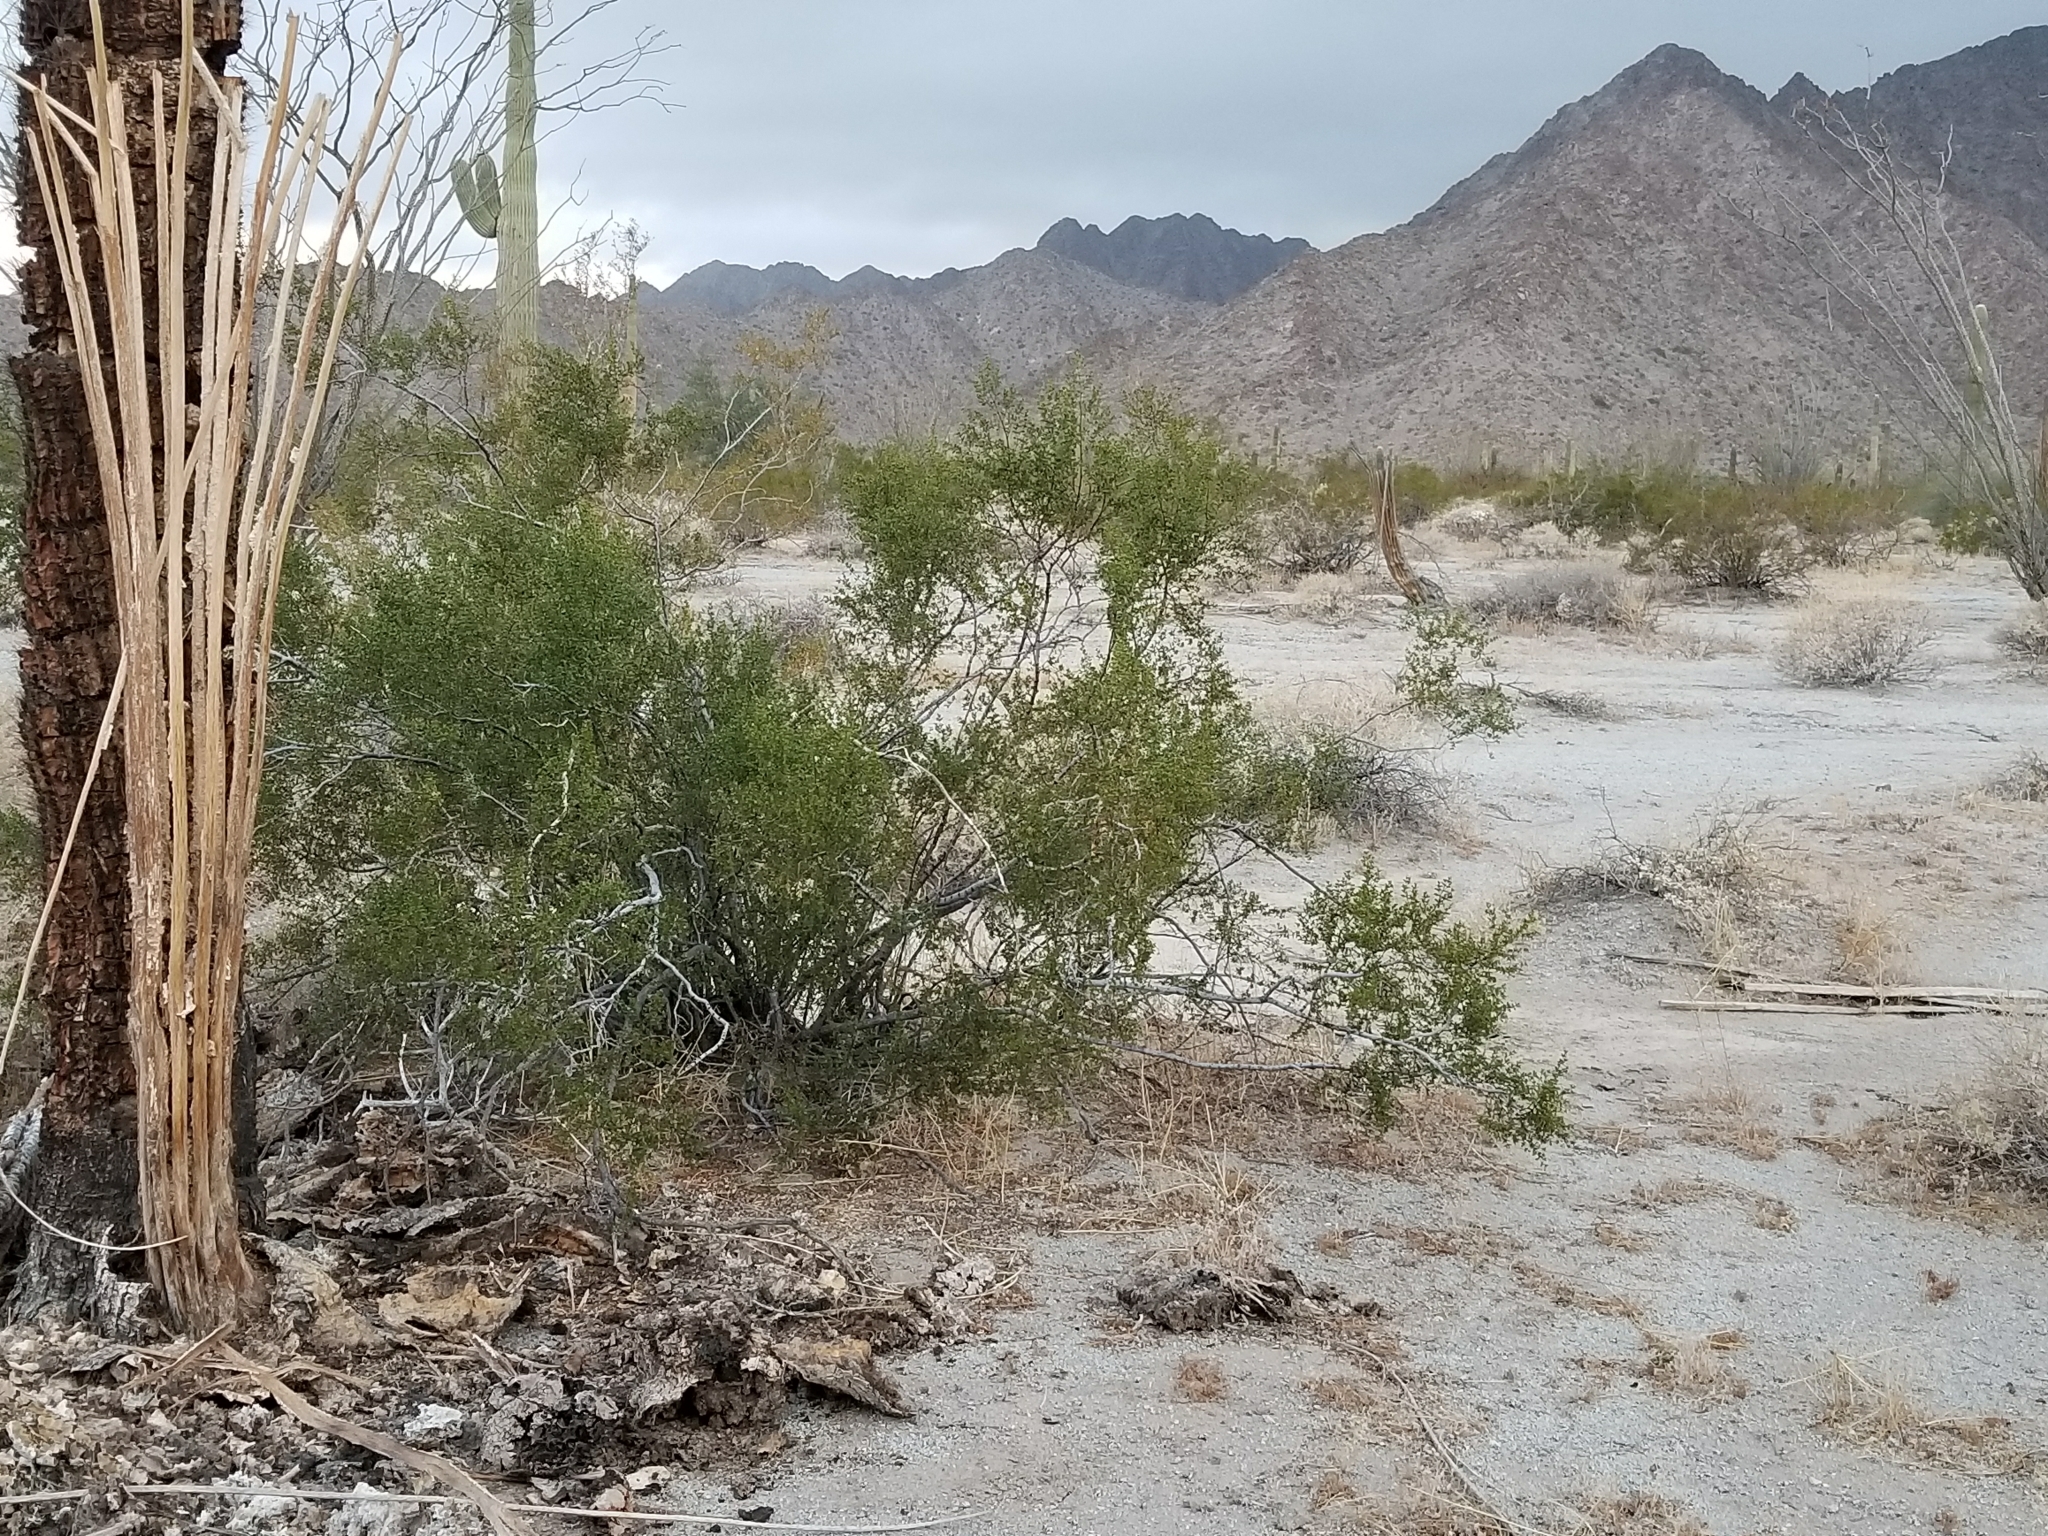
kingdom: Plantae
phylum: Tracheophyta
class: Magnoliopsida
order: Zygophyllales
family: Zygophyllaceae
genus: Larrea
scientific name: Larrea tridentata
